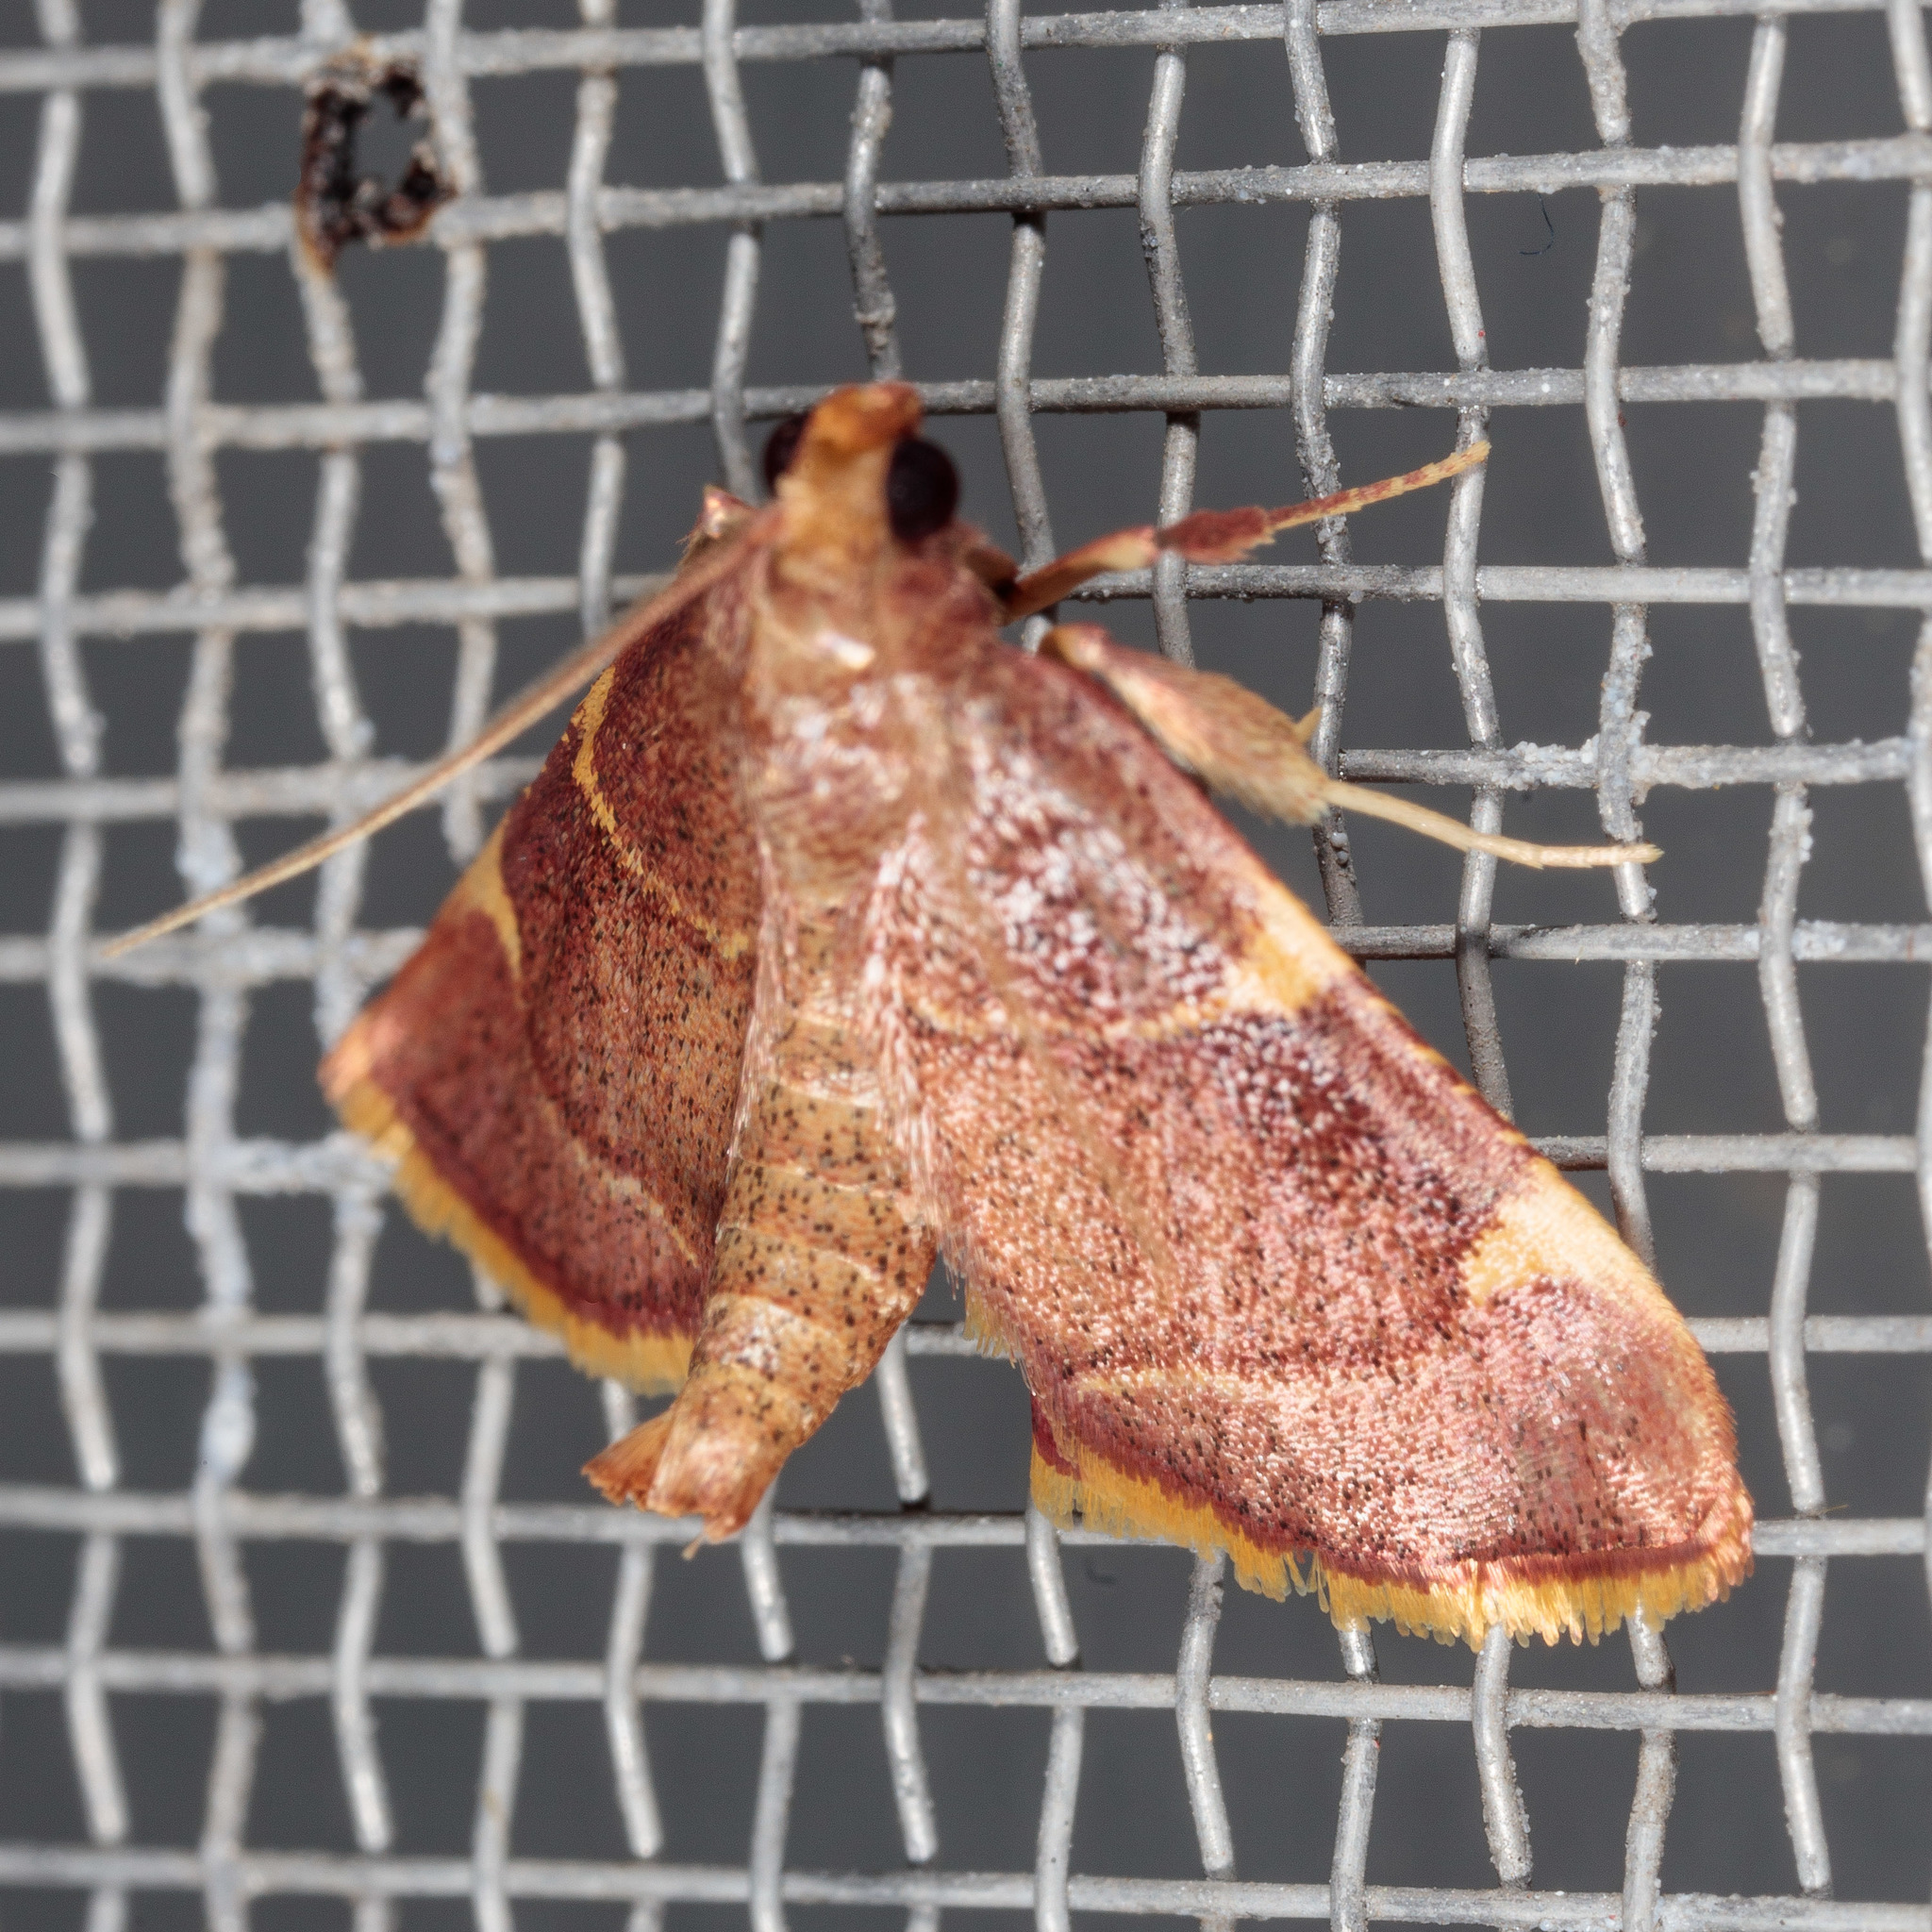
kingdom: Animalia
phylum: Arthropoda
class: Insecta
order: Lepidoptera
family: Pyralidae
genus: Hypsopygia
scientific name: Hypsopygia olinalis
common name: Yellow-fringed dolichomia moth
